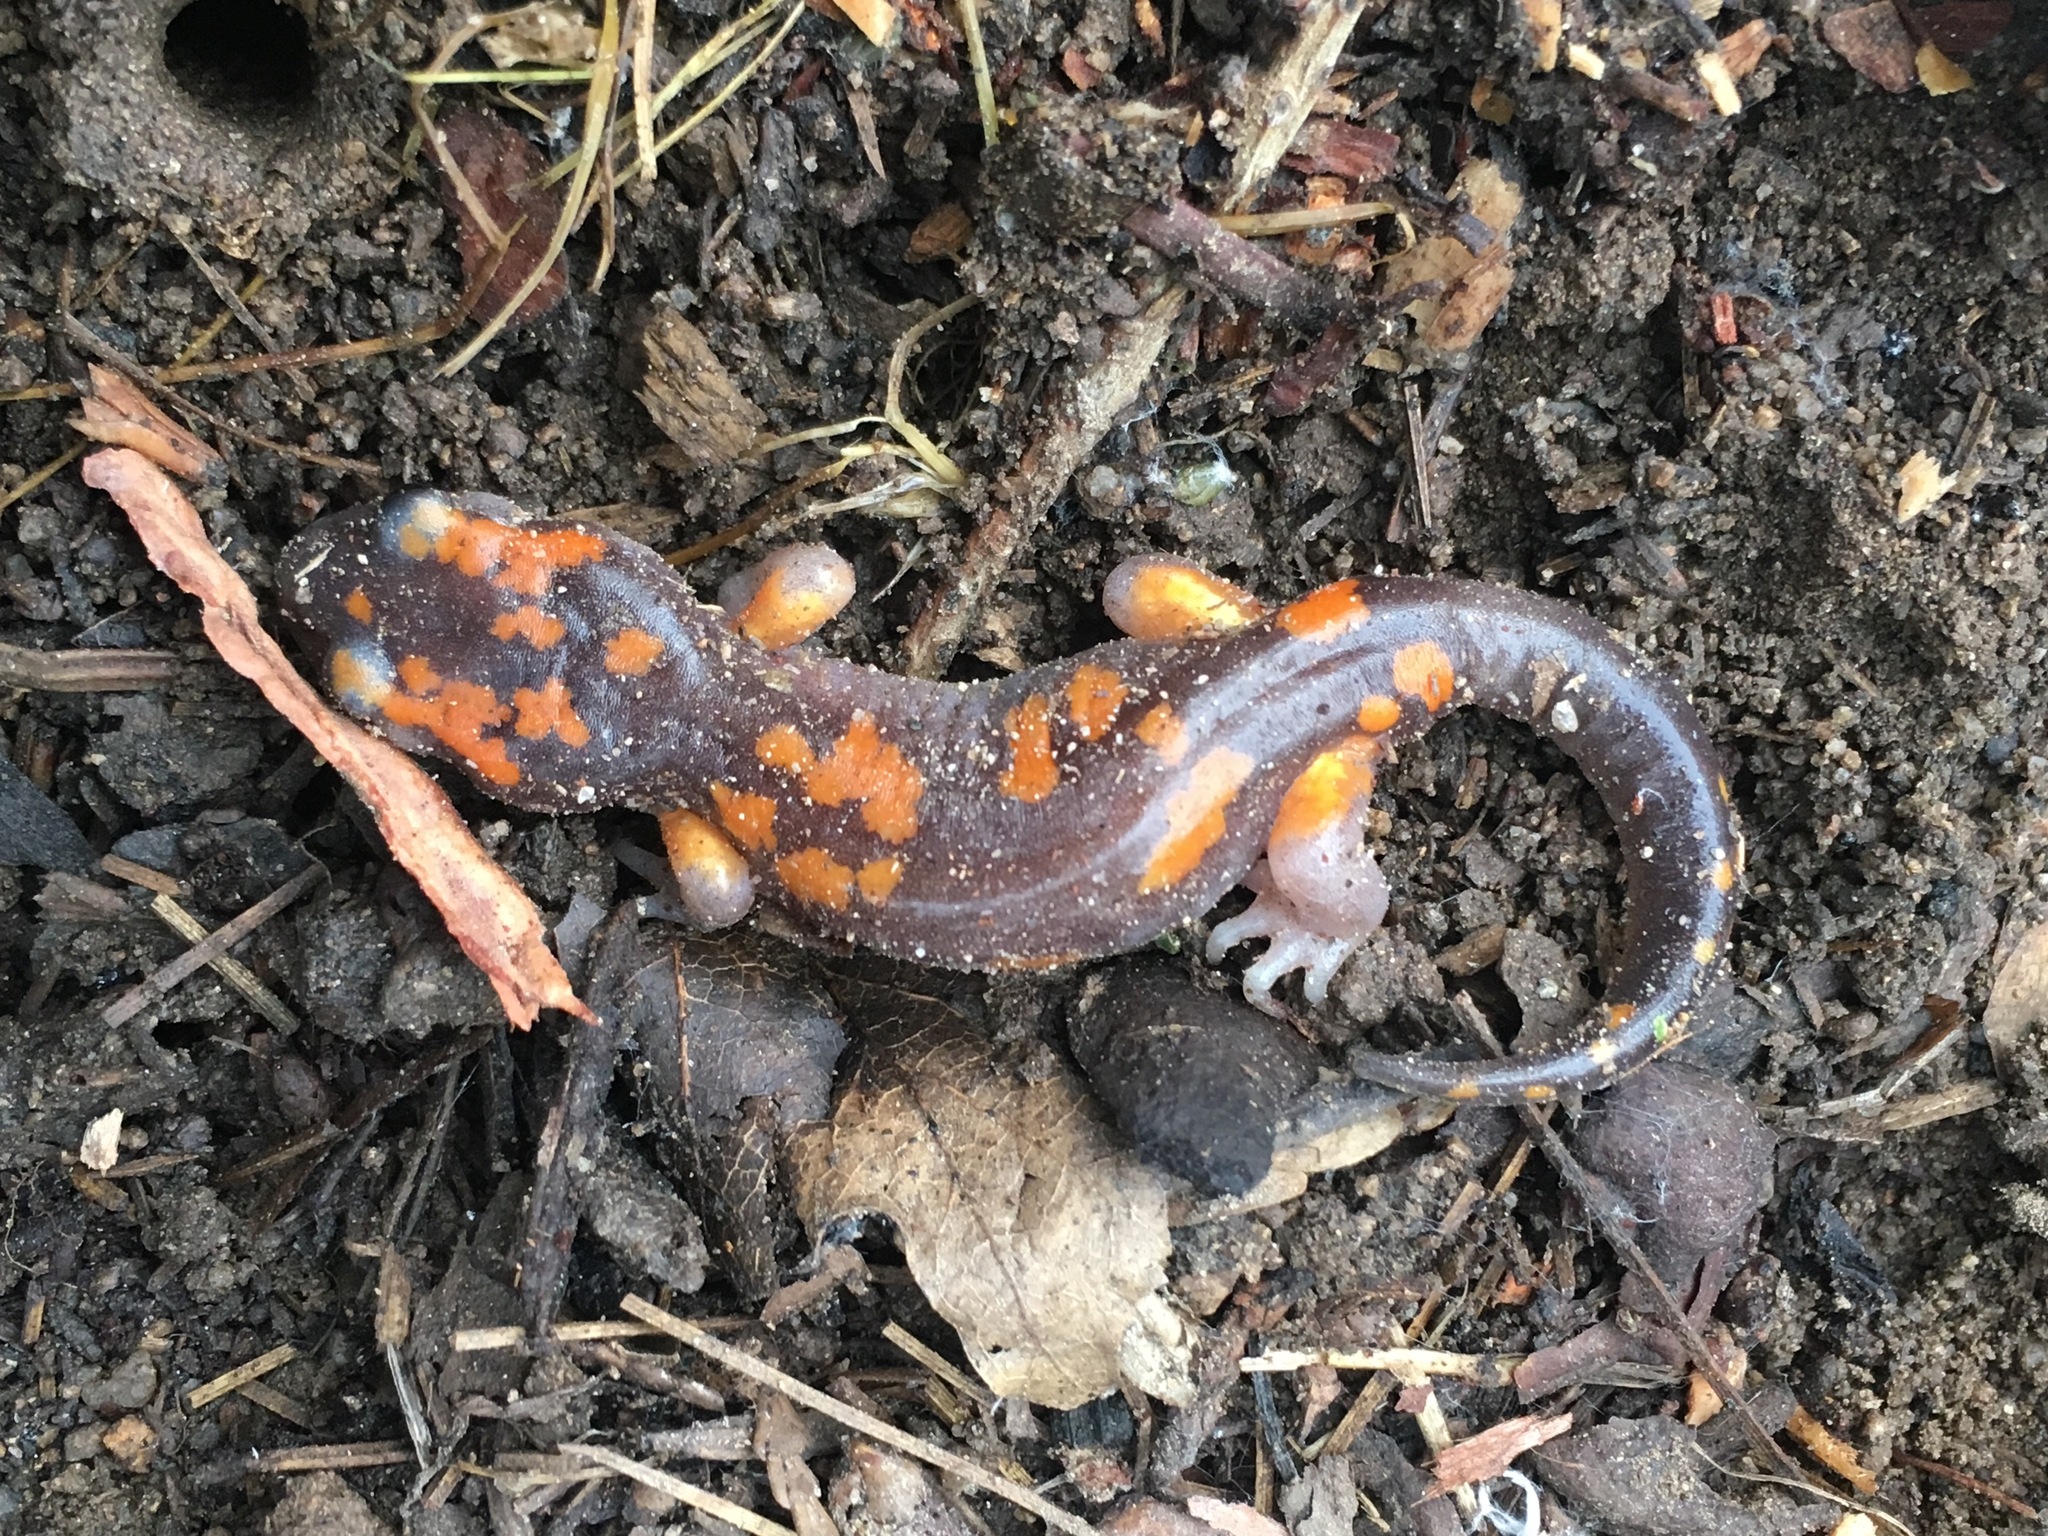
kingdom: Animalia
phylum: Chordata
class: Amphibia
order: Caudata
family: Plethodontidae
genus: Ensatina
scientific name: Ensatina eschscholtzii
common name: Ensatina
